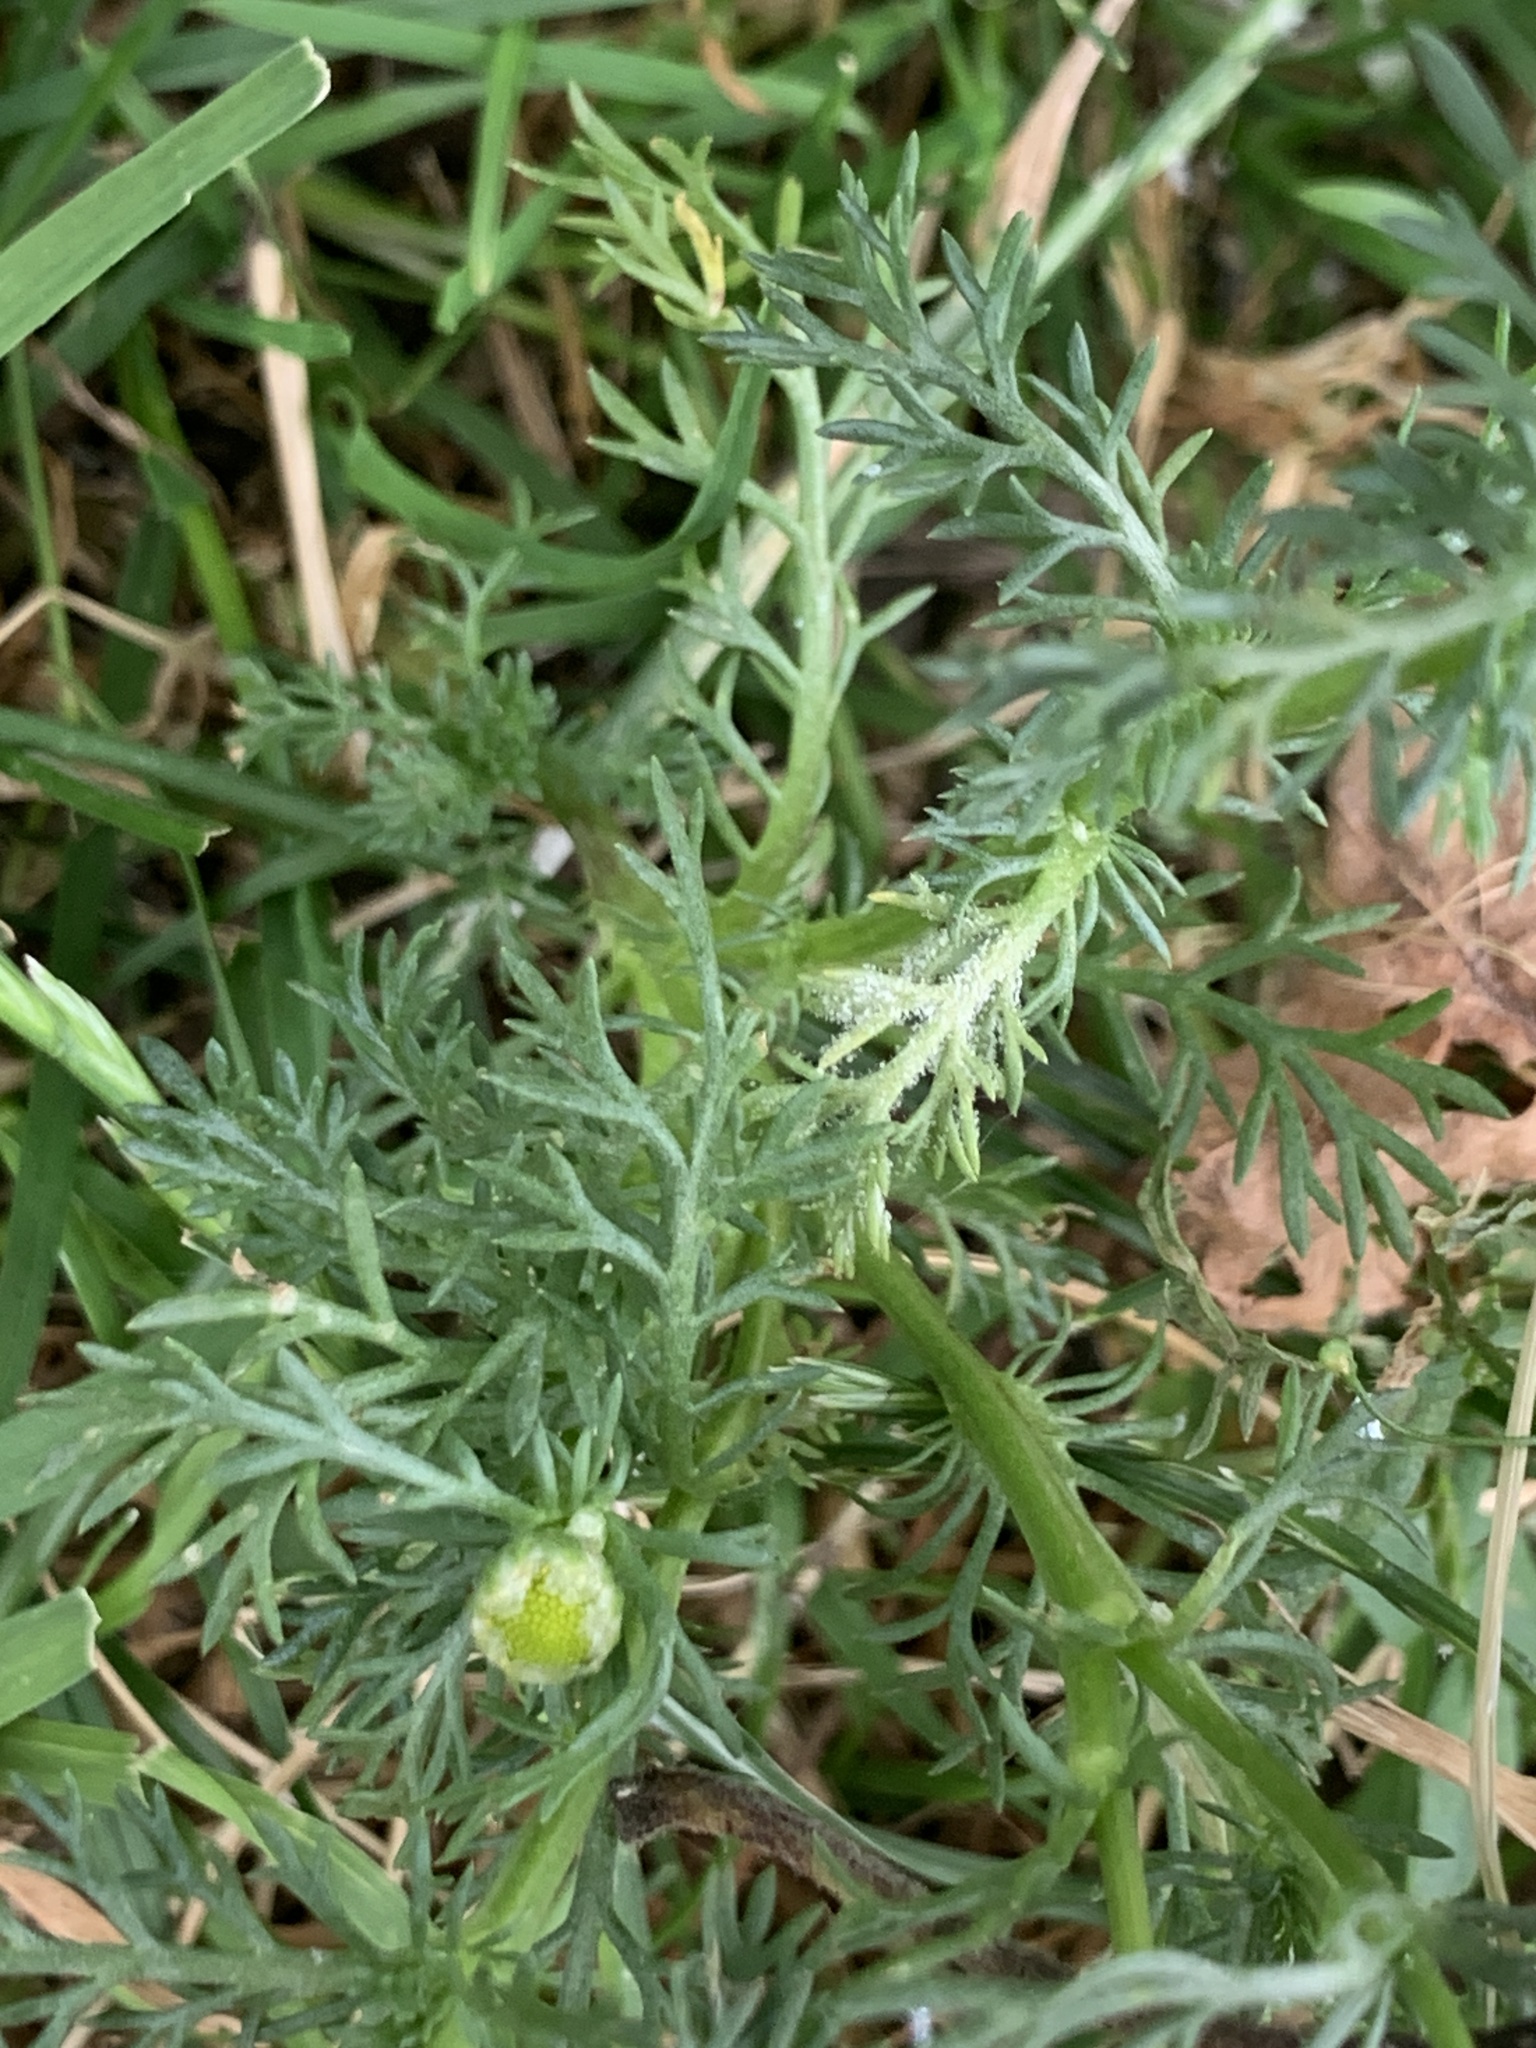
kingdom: Plantae
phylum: Tracheophyta
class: Magnoliopsida
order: Asterales
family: Asteraceae
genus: Matricaria
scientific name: Matricaria discoidea
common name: Disc mayweed
